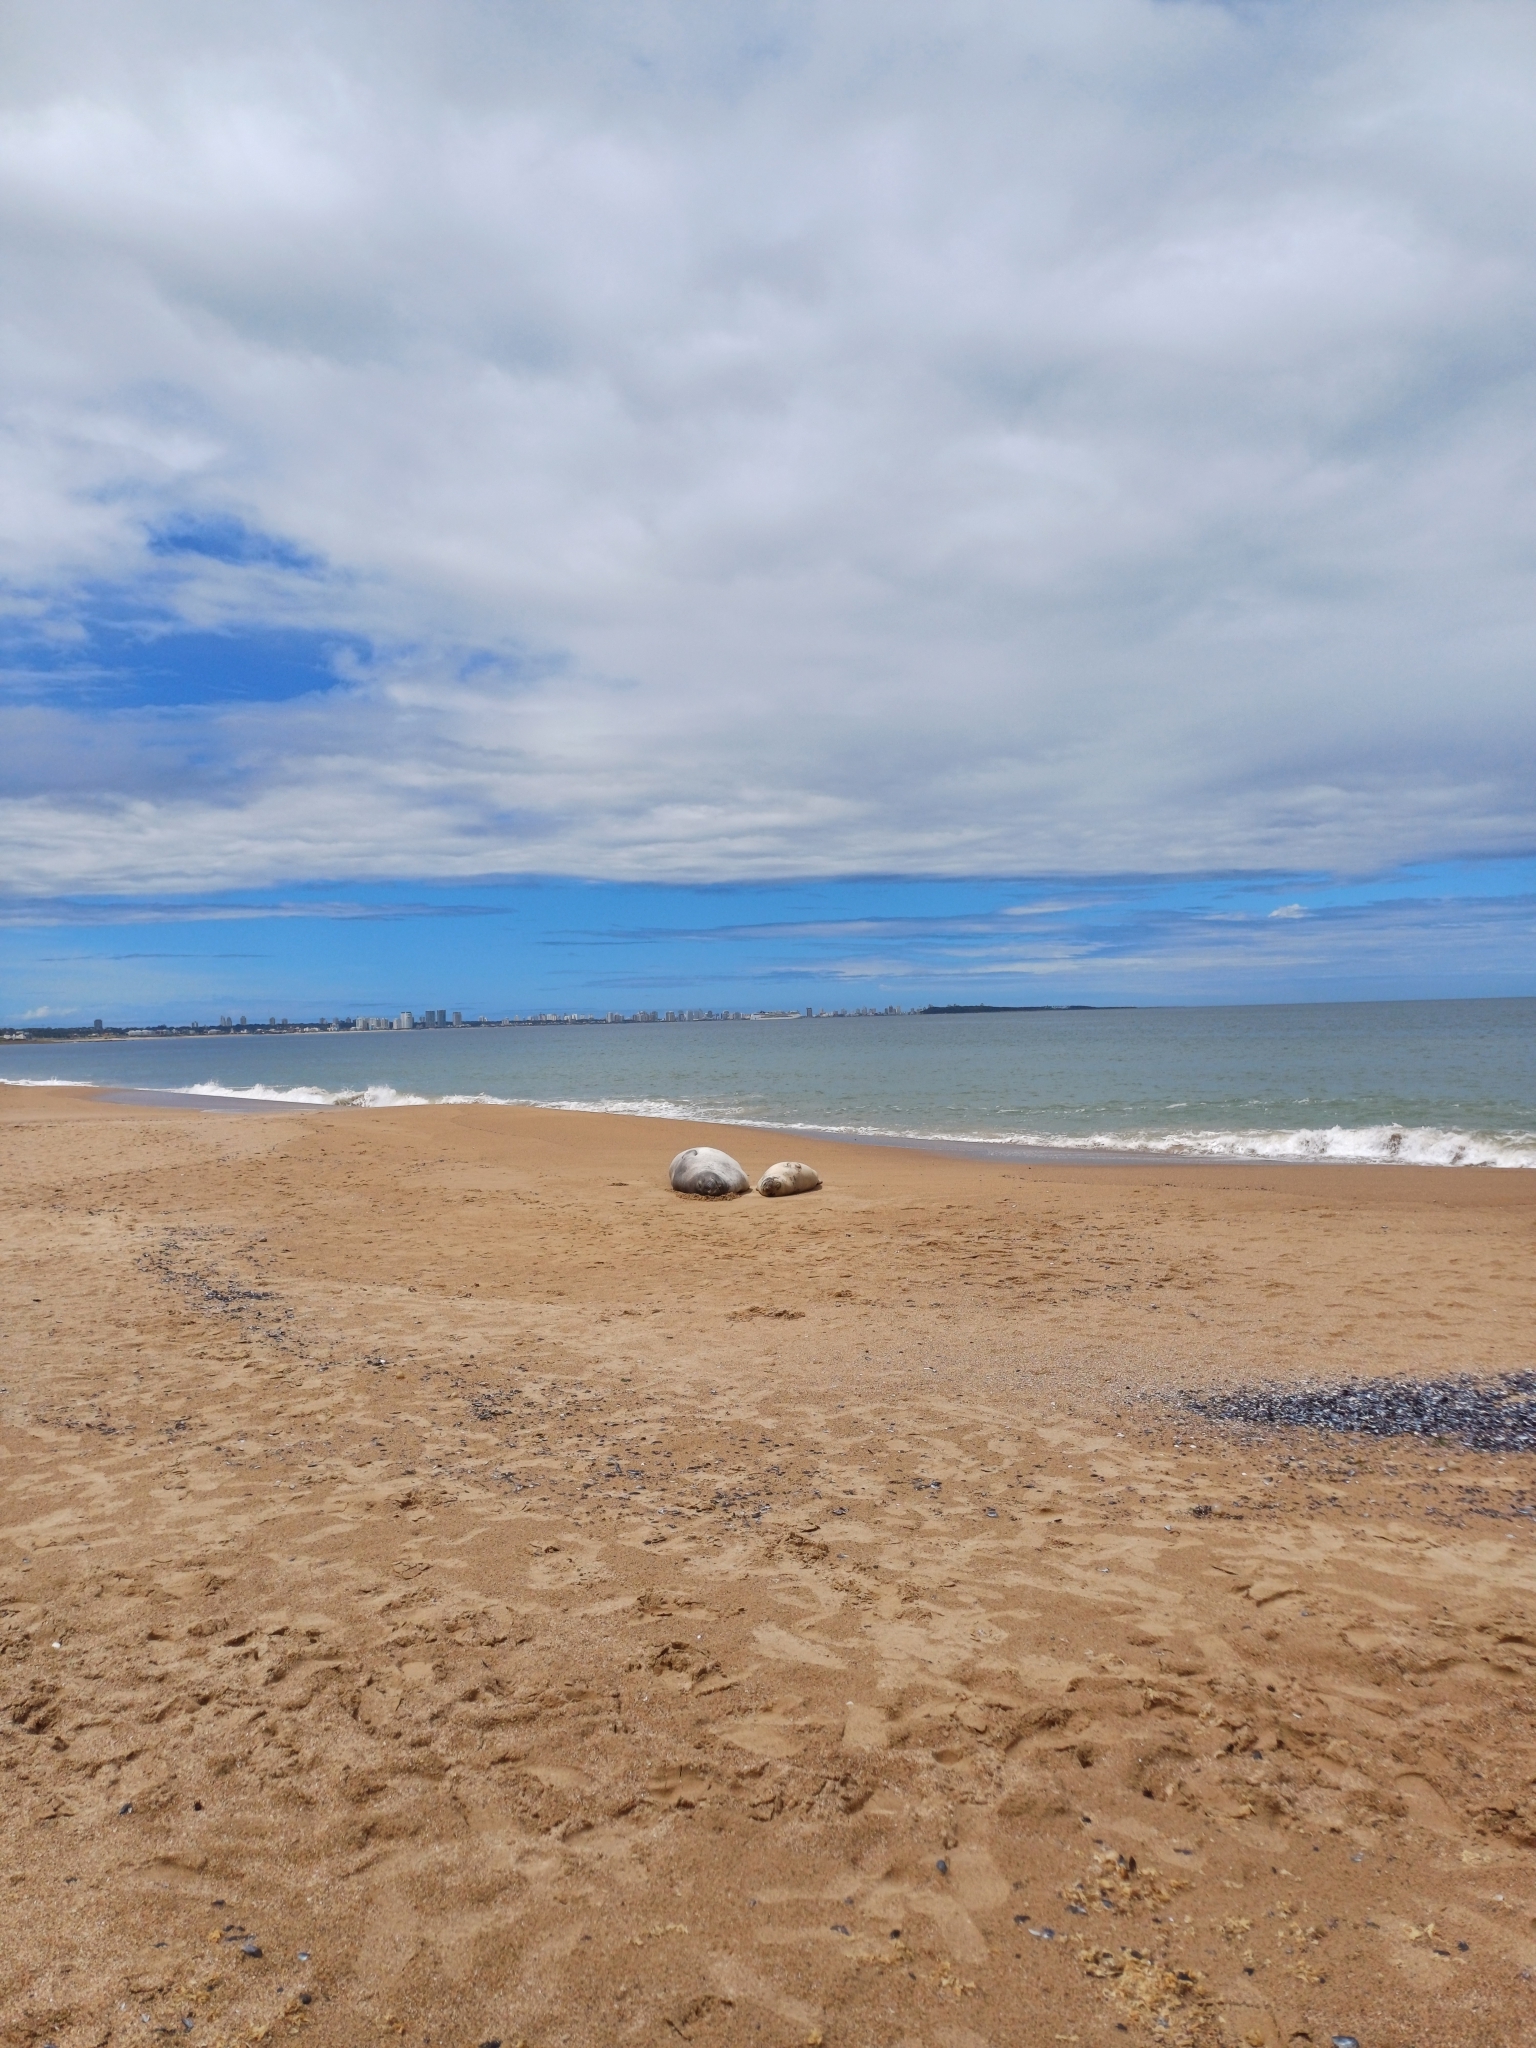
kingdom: Animalia
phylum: Chordata
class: Mammalia
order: Carnivora
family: Phocidae
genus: Mirounga
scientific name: Mirounga leonina
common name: Southern elephant seal
